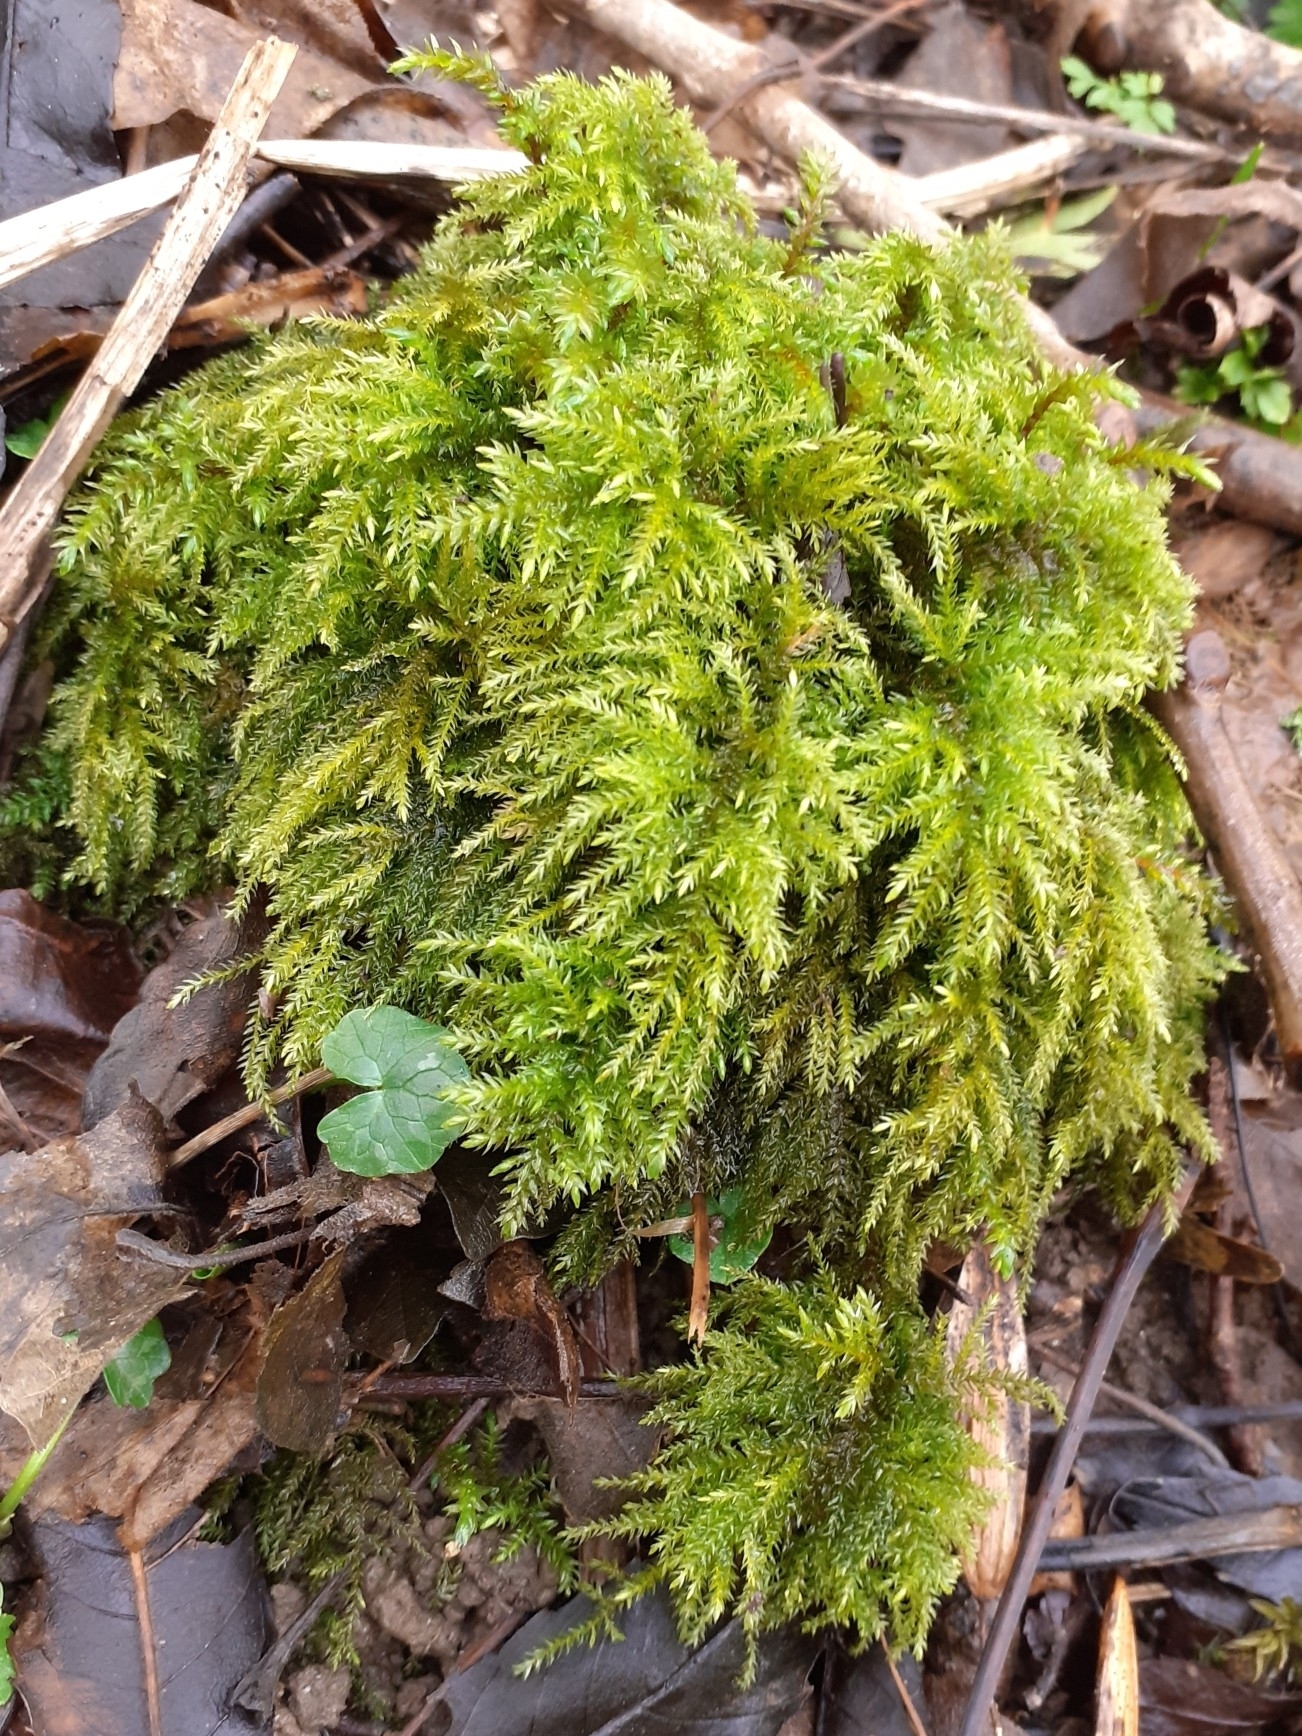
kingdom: Plantae
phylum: Bryophyta
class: Bryopsida
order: Hypnales
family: Neckeraceae
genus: Thamnobryum
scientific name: Thamnobryum alopecurum
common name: Fox-tail feather-moss
